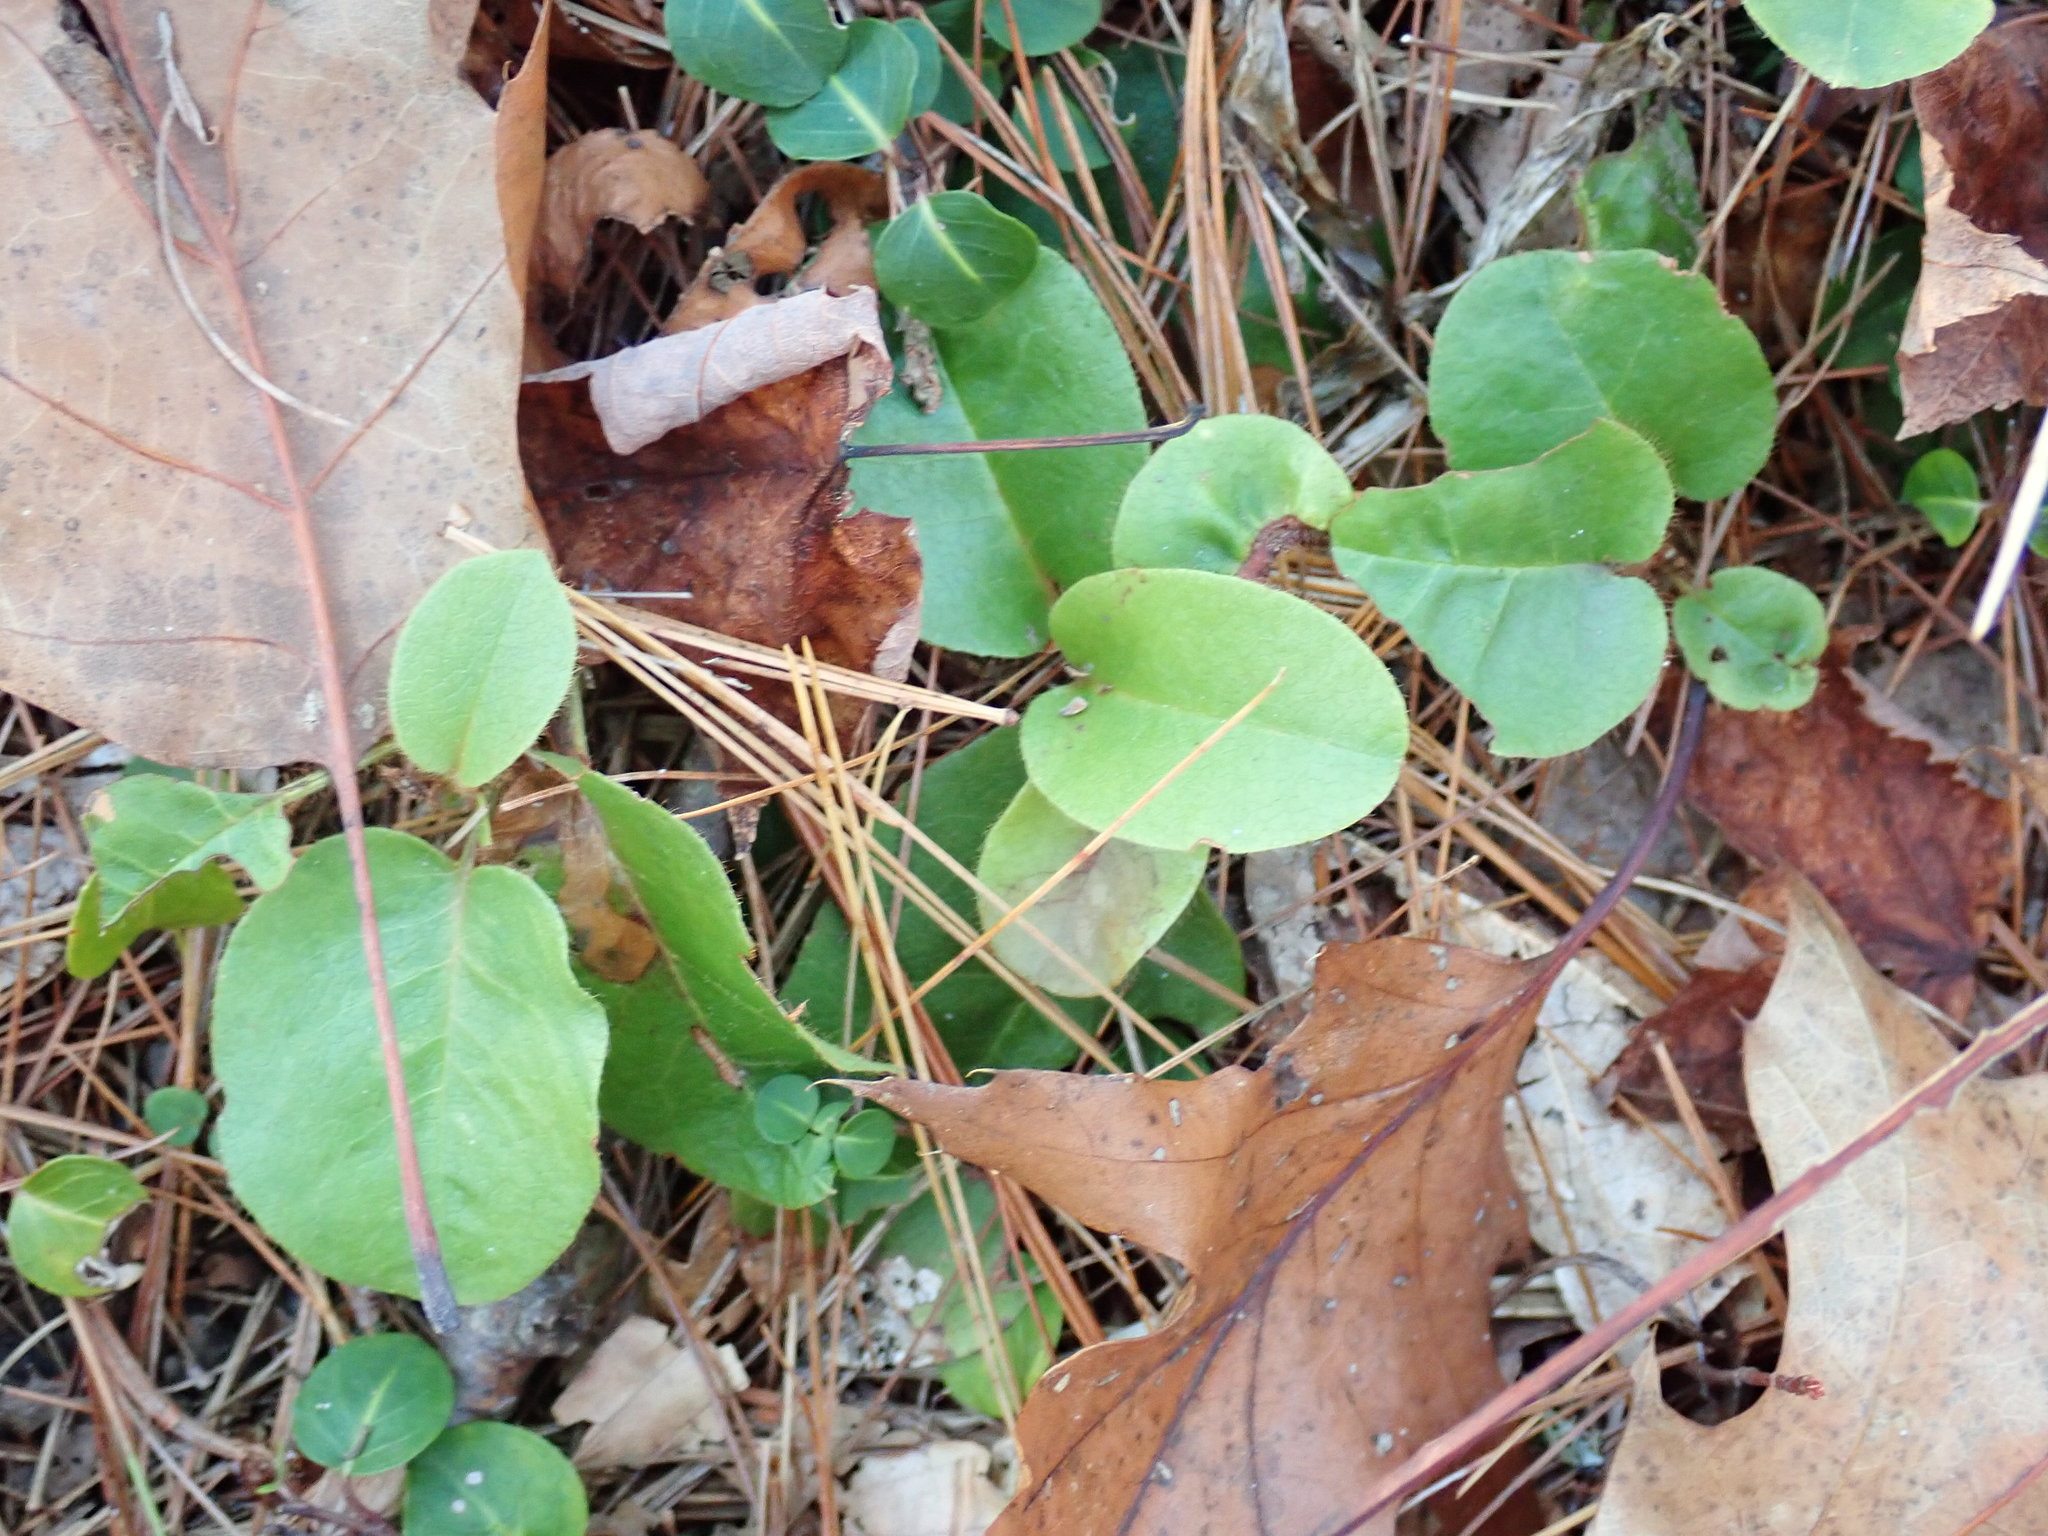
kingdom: Plantae
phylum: Tracheophyta
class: Magnoliopsida
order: Ericales
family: Ericaceae
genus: Epigaea
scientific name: Epigaea repens
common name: Gravelroot
